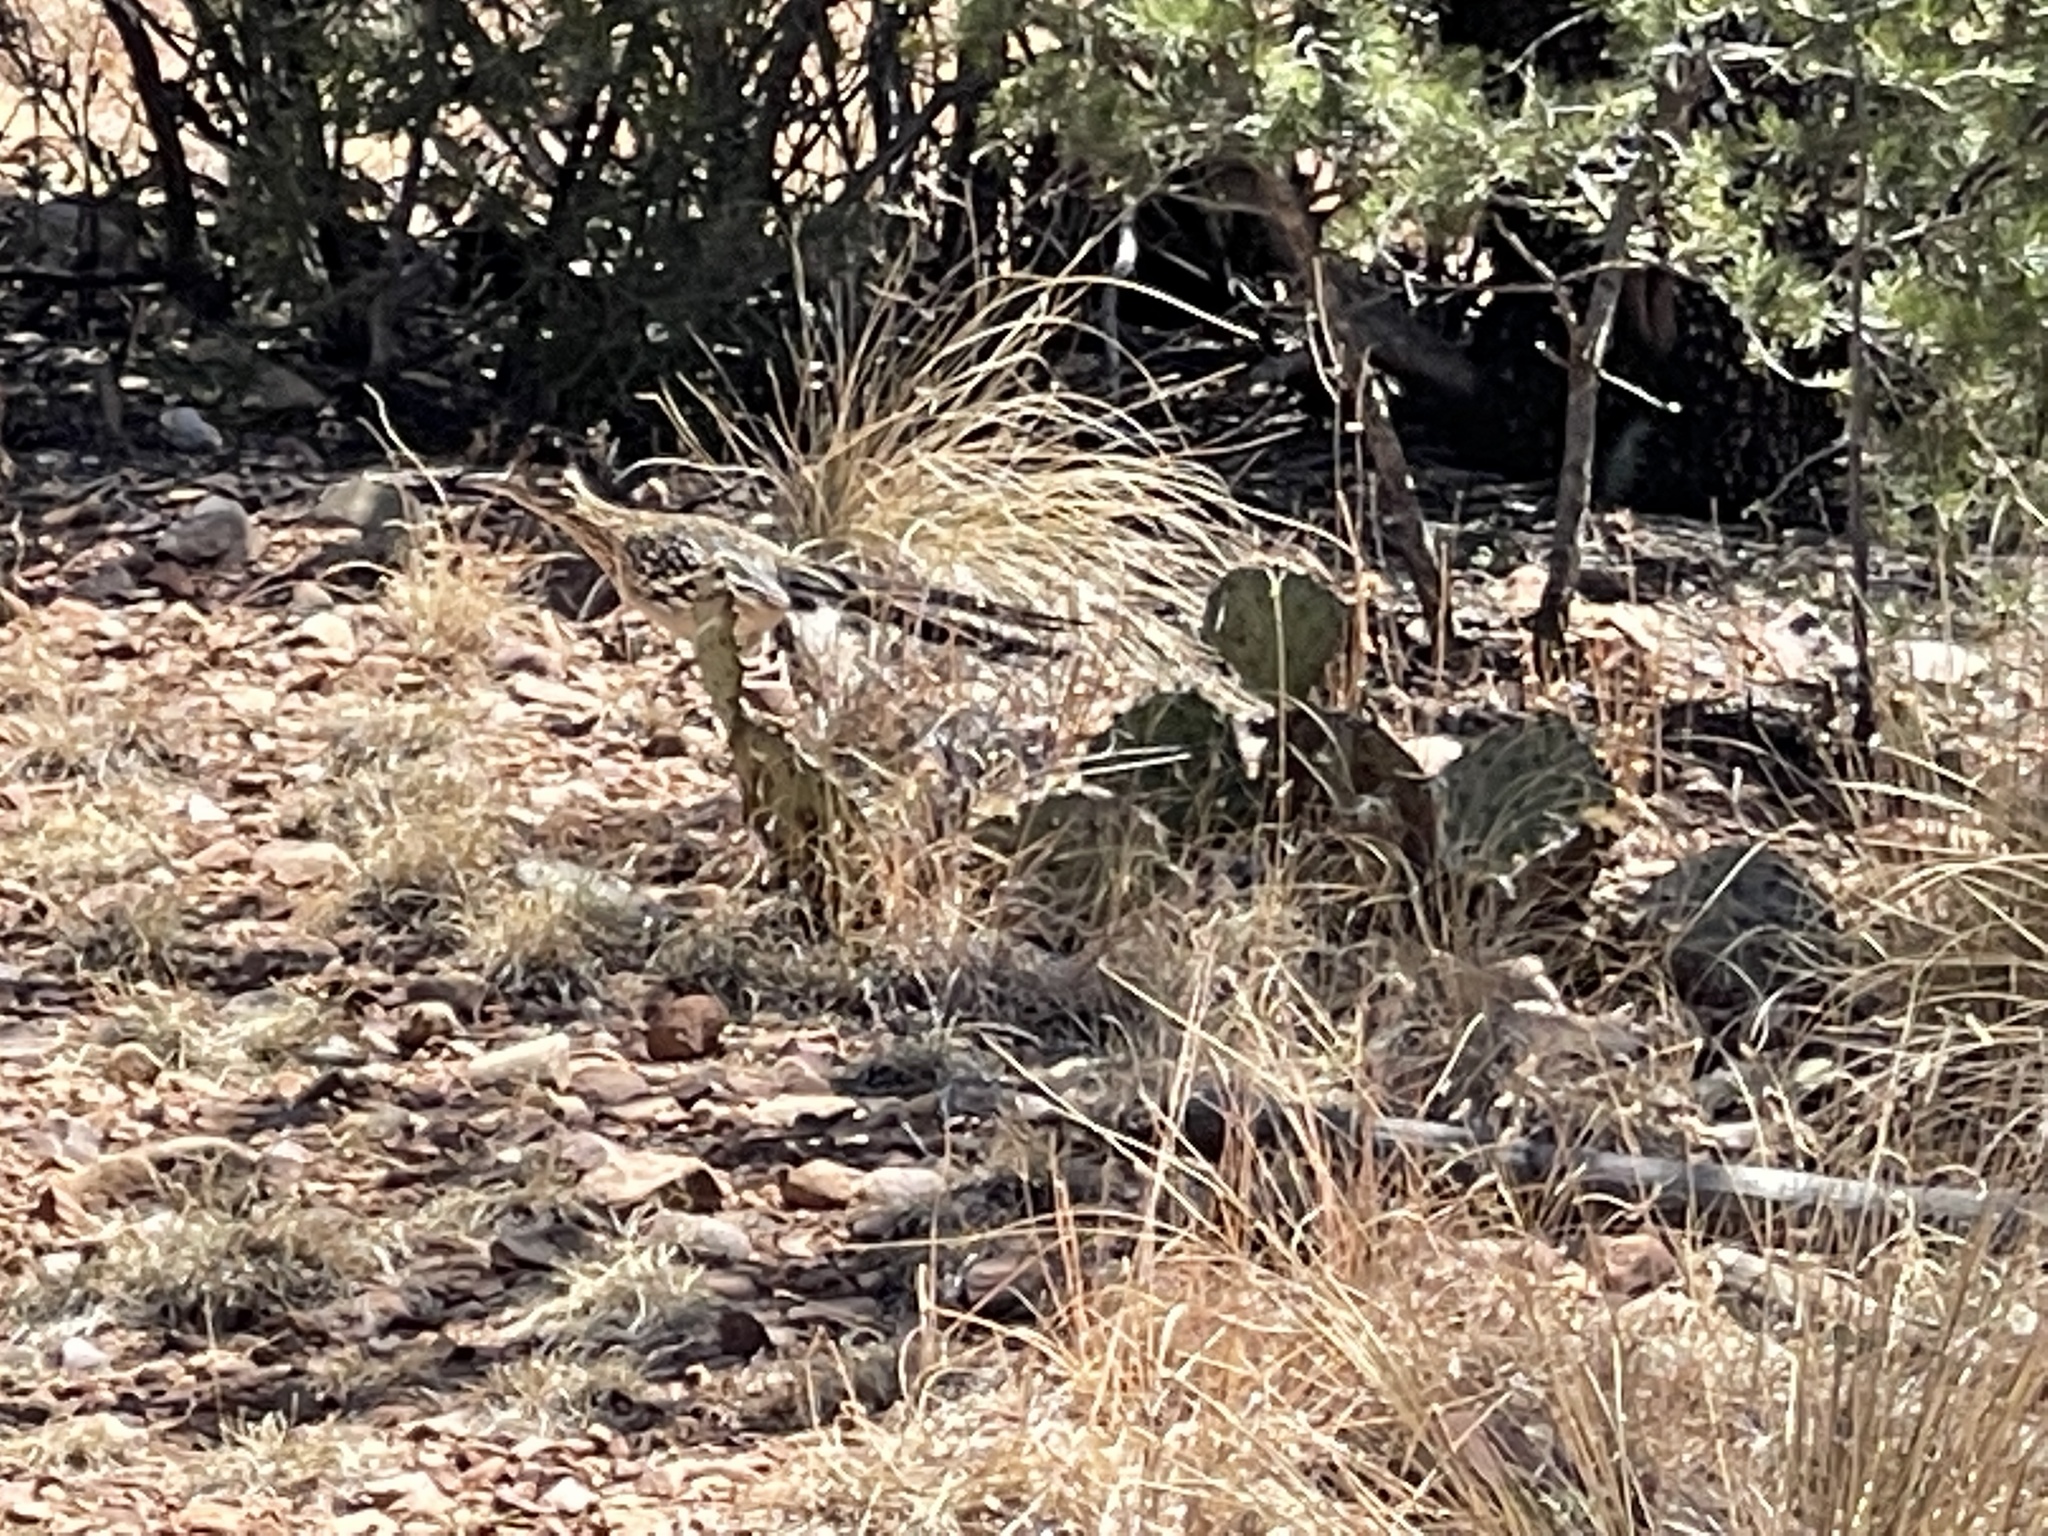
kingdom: Animalia
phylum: Chordata
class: Aves
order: Cuculiformes
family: Cuculidae
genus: Geococcyx
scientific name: Geococcyx californianus
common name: Greater roadrunner
